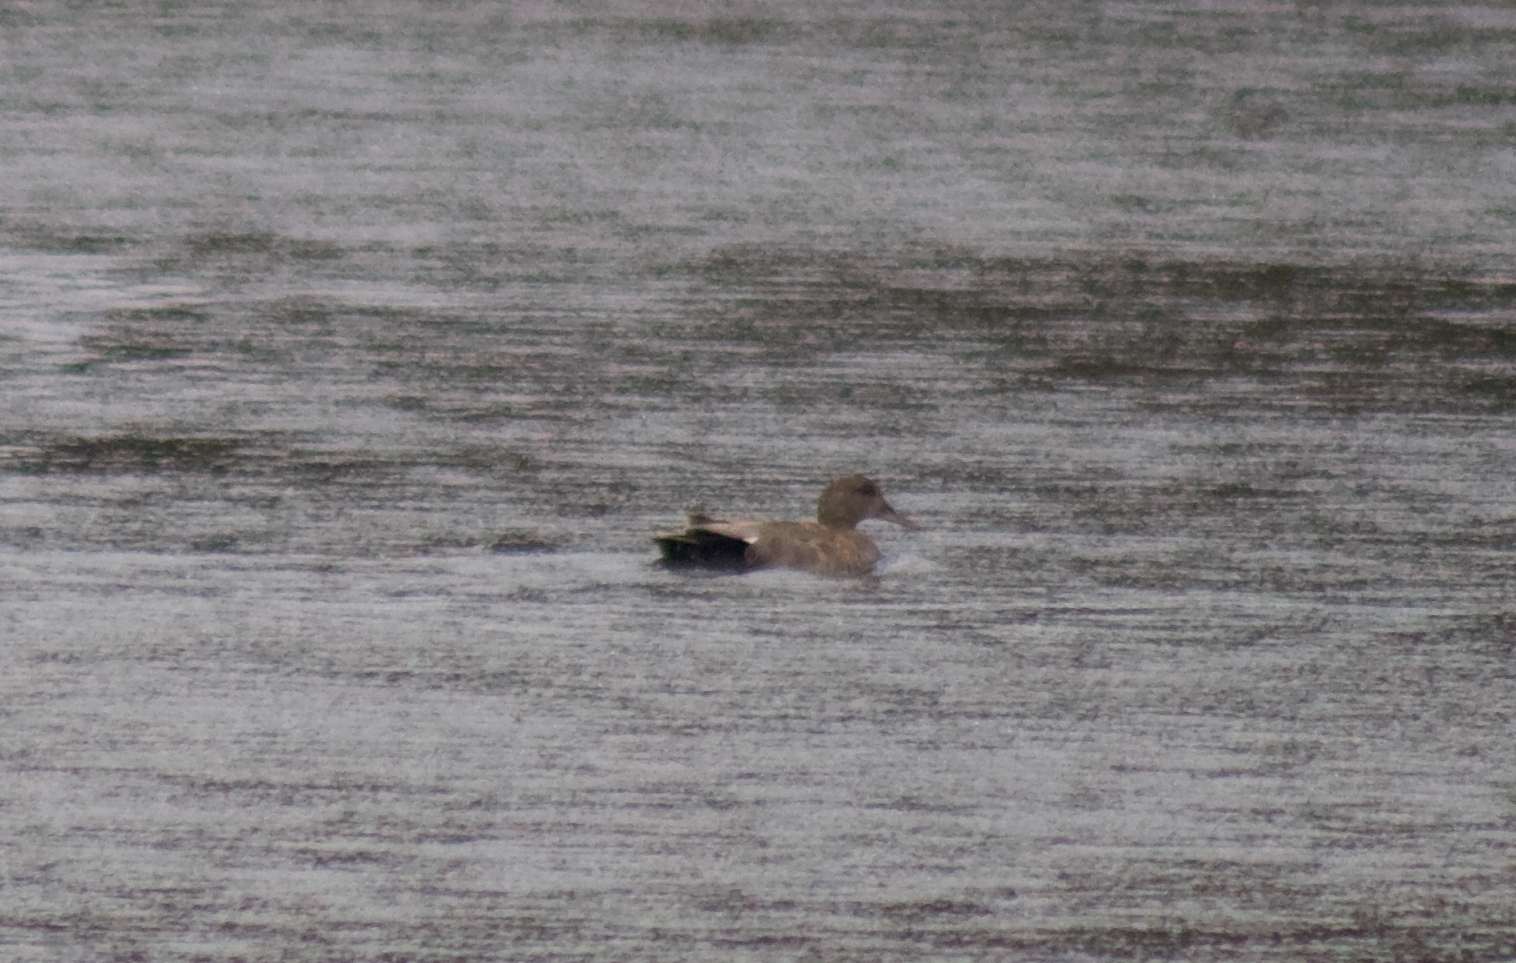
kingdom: Animalia
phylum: Chordata
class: Aves
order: Anseriformes
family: Anatidae
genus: Mareca
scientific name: Mareca strepera
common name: Gadwall
